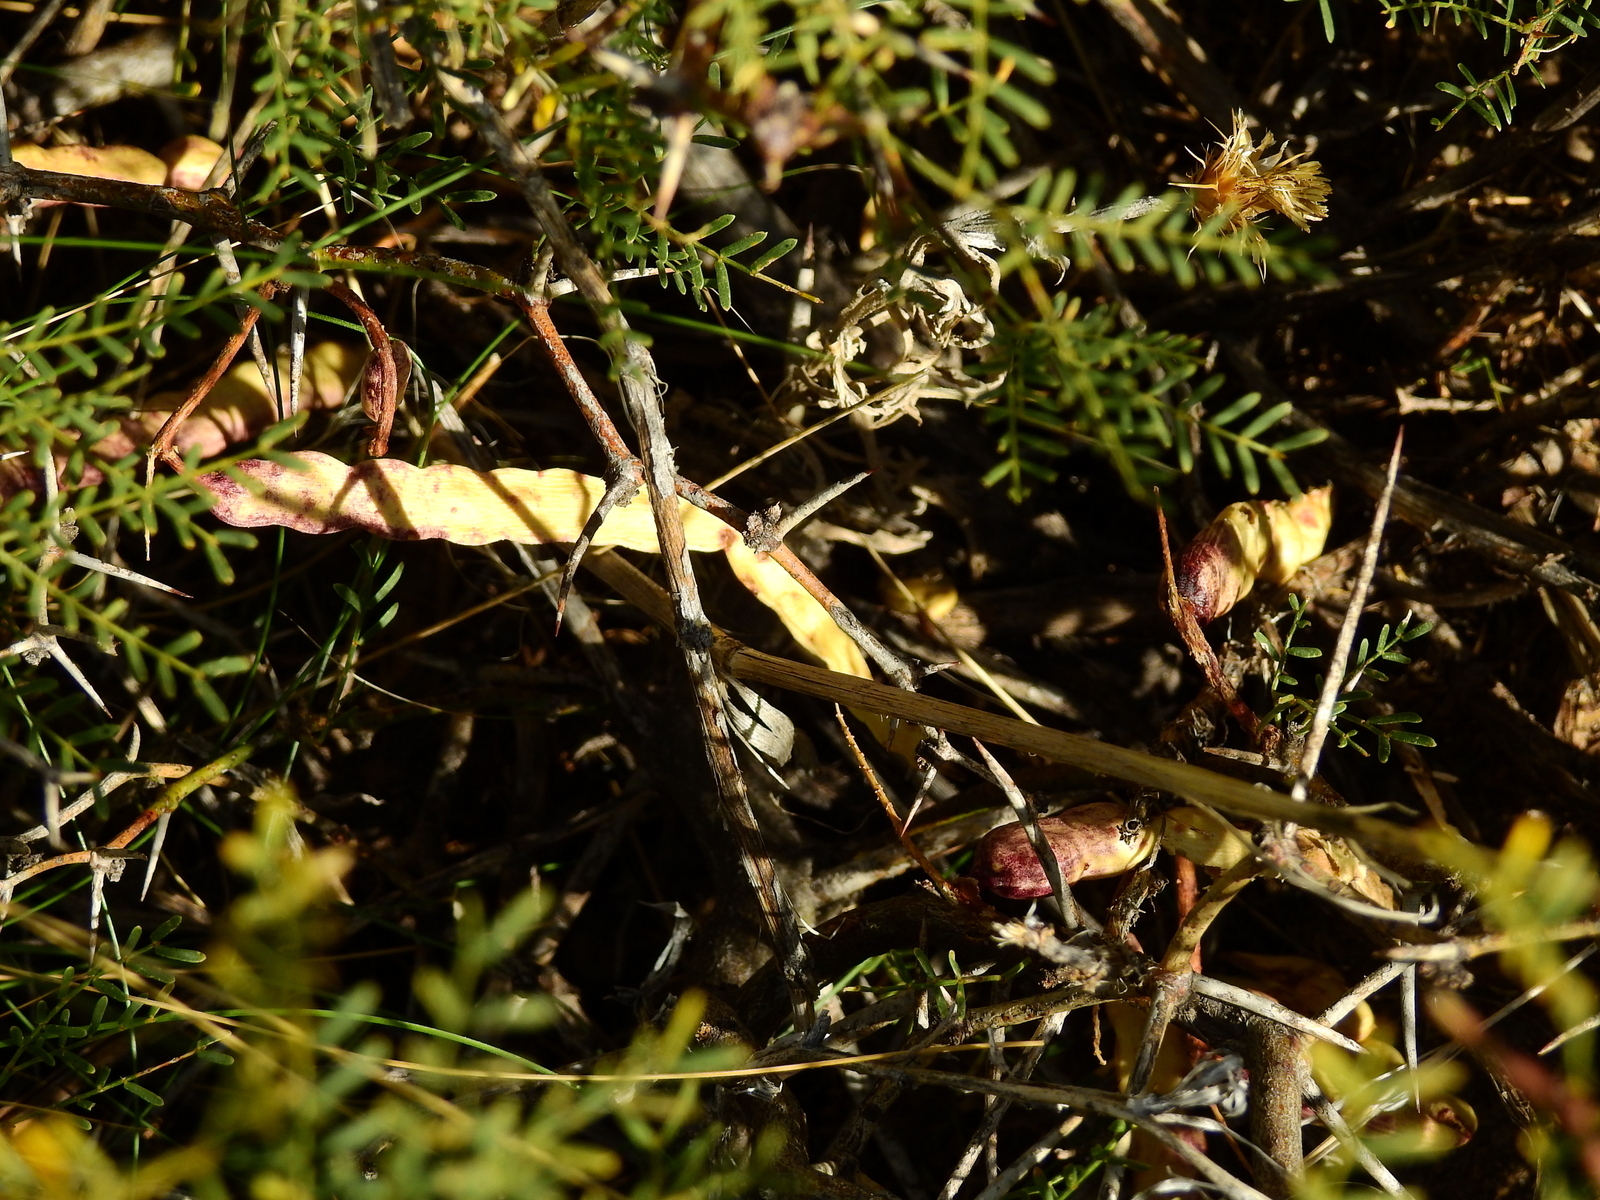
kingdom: Plantae
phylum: Tracheophyta
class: Magnoliopsida
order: Fabales
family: Fabaceae
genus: Prosopis
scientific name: Prosopis flexuosa
